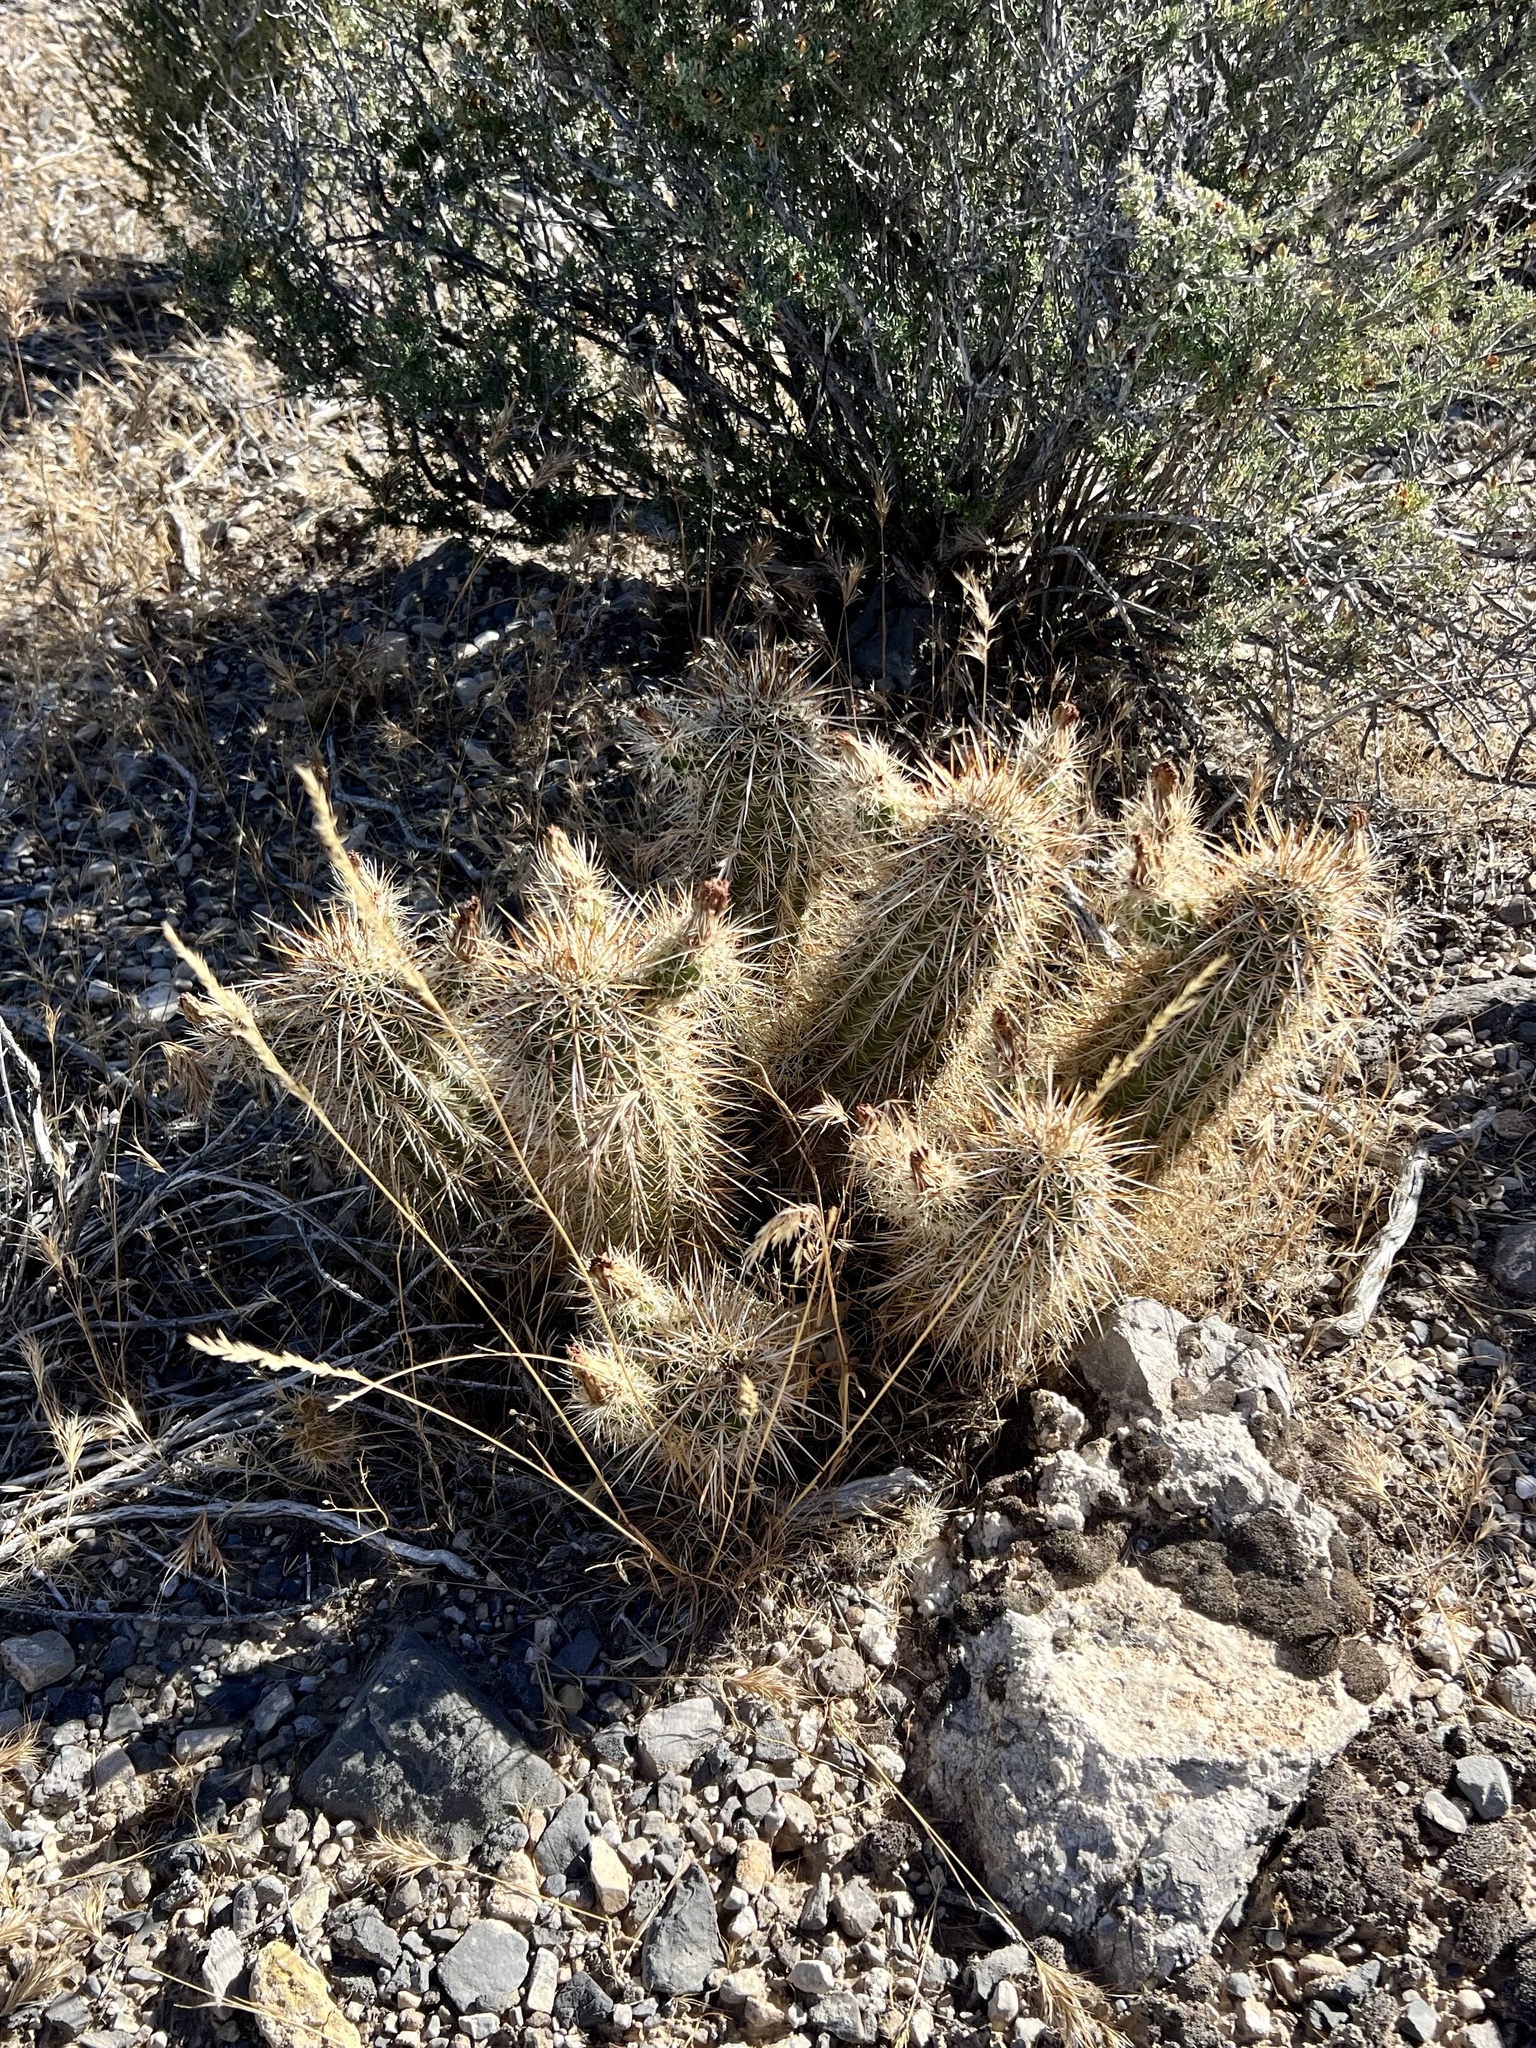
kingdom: Plantae
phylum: Tracheophyta
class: Magnoliopsida
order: Caryophyllales
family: Cactaceae
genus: Echinocereus
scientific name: Echinocereus engelmannii
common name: Engelmann's hedgehog cactus
